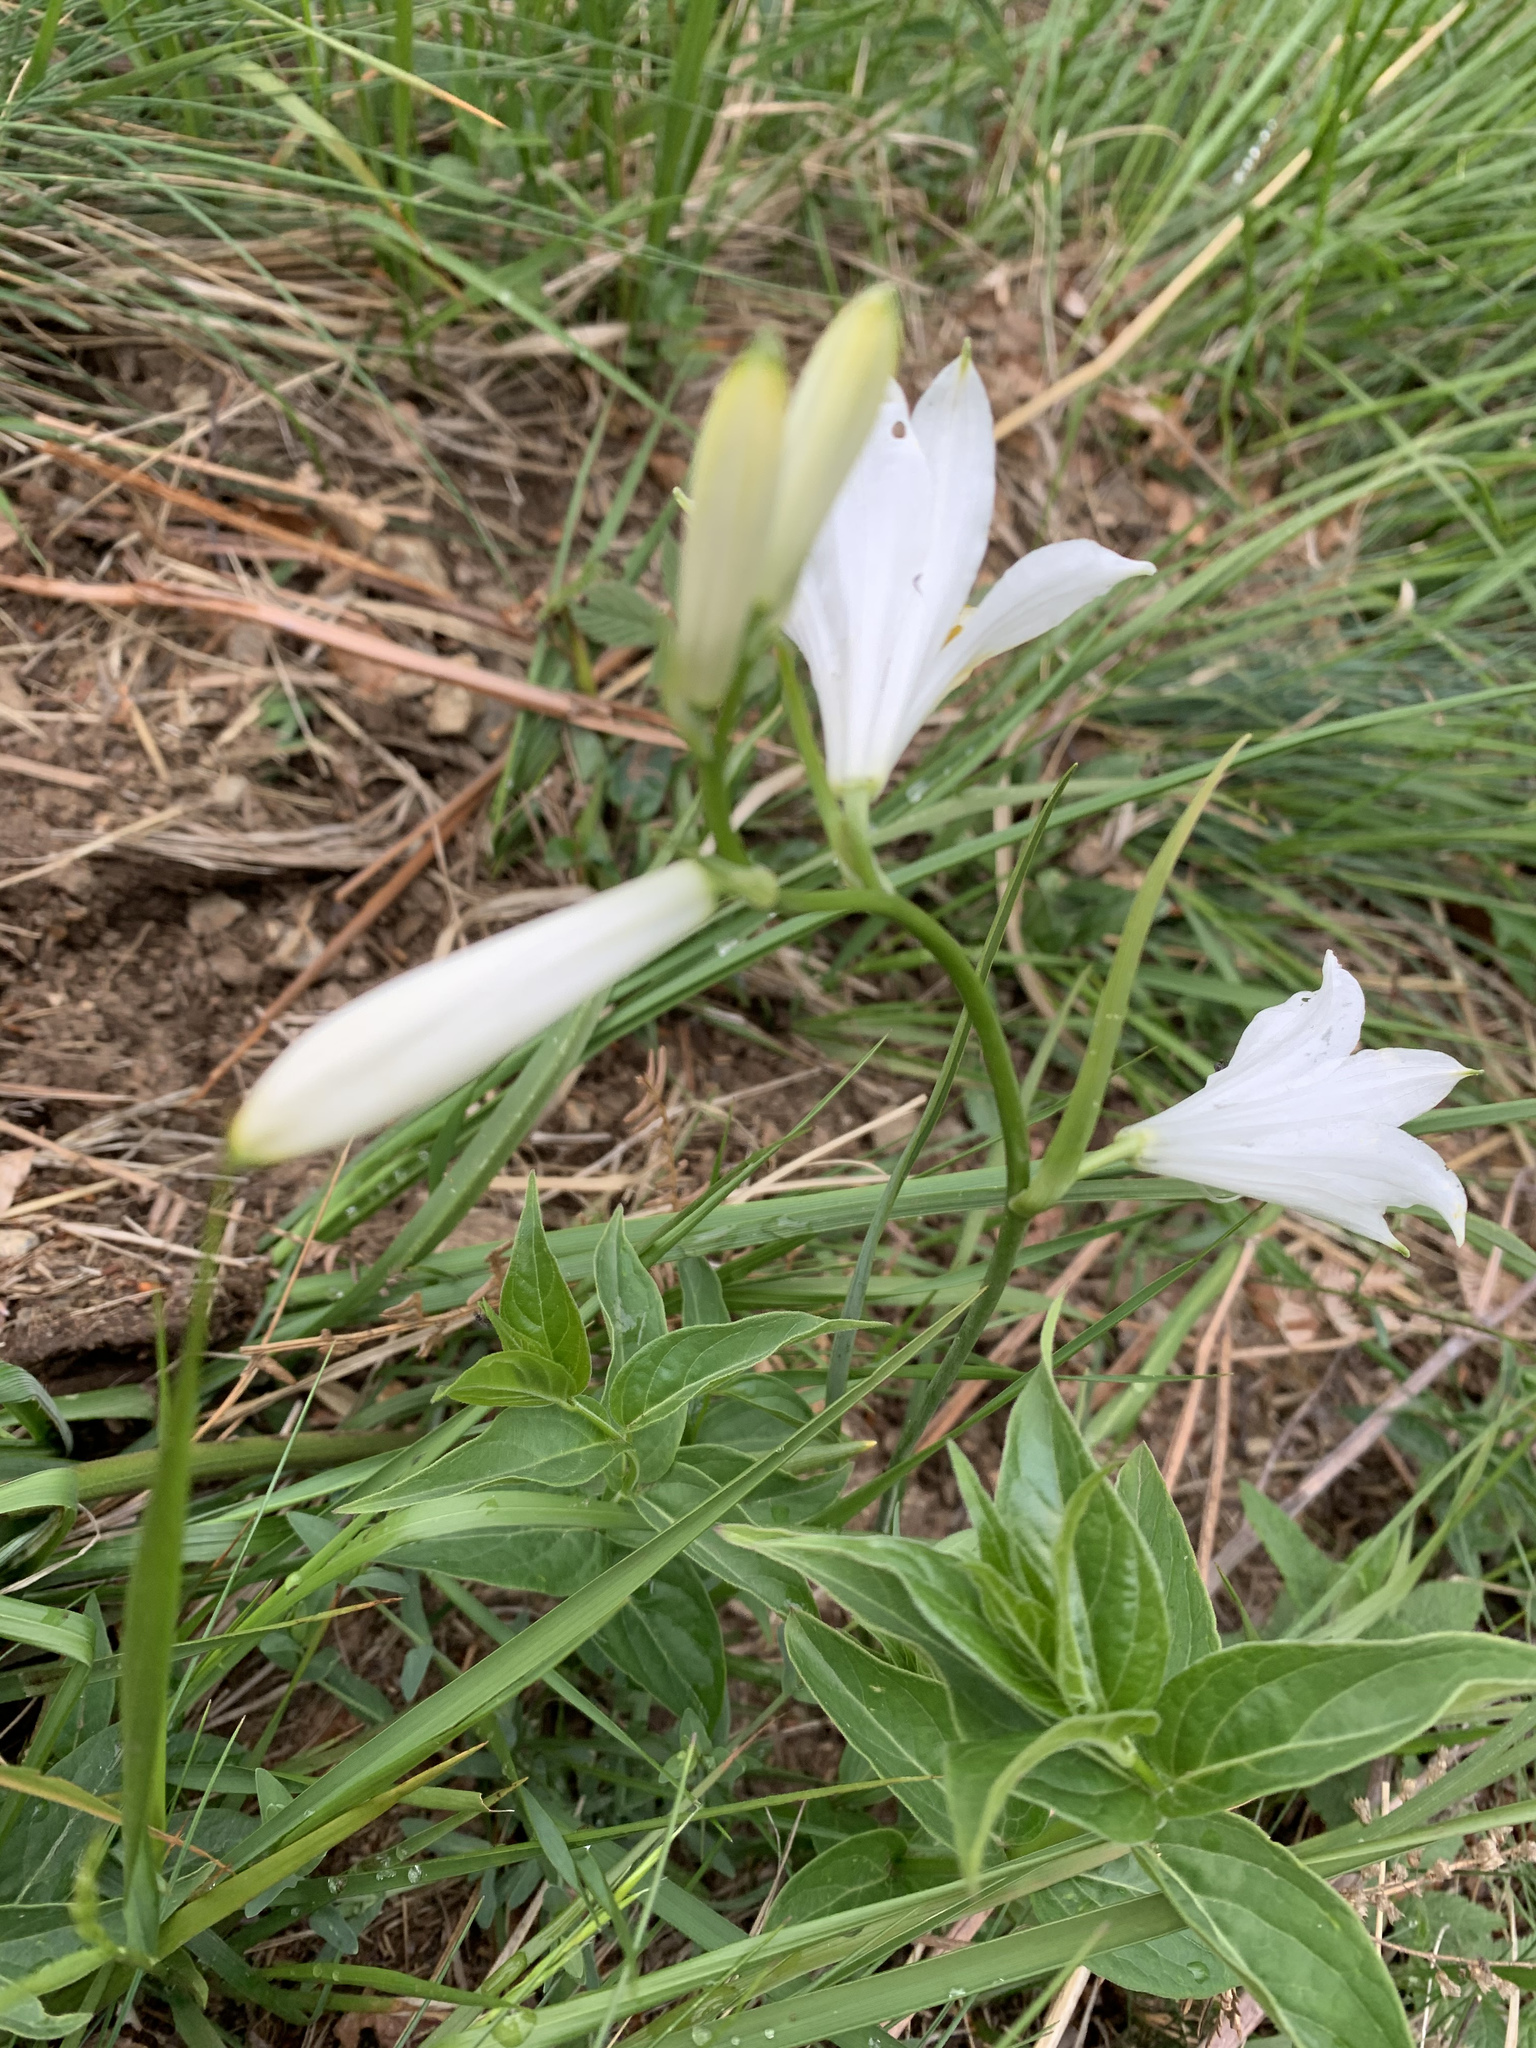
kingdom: Plantae
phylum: Tracheophyta
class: Liliopsida
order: Asparagales
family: Asparagaceae
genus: Paradisea
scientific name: Paradisea liliastrum
